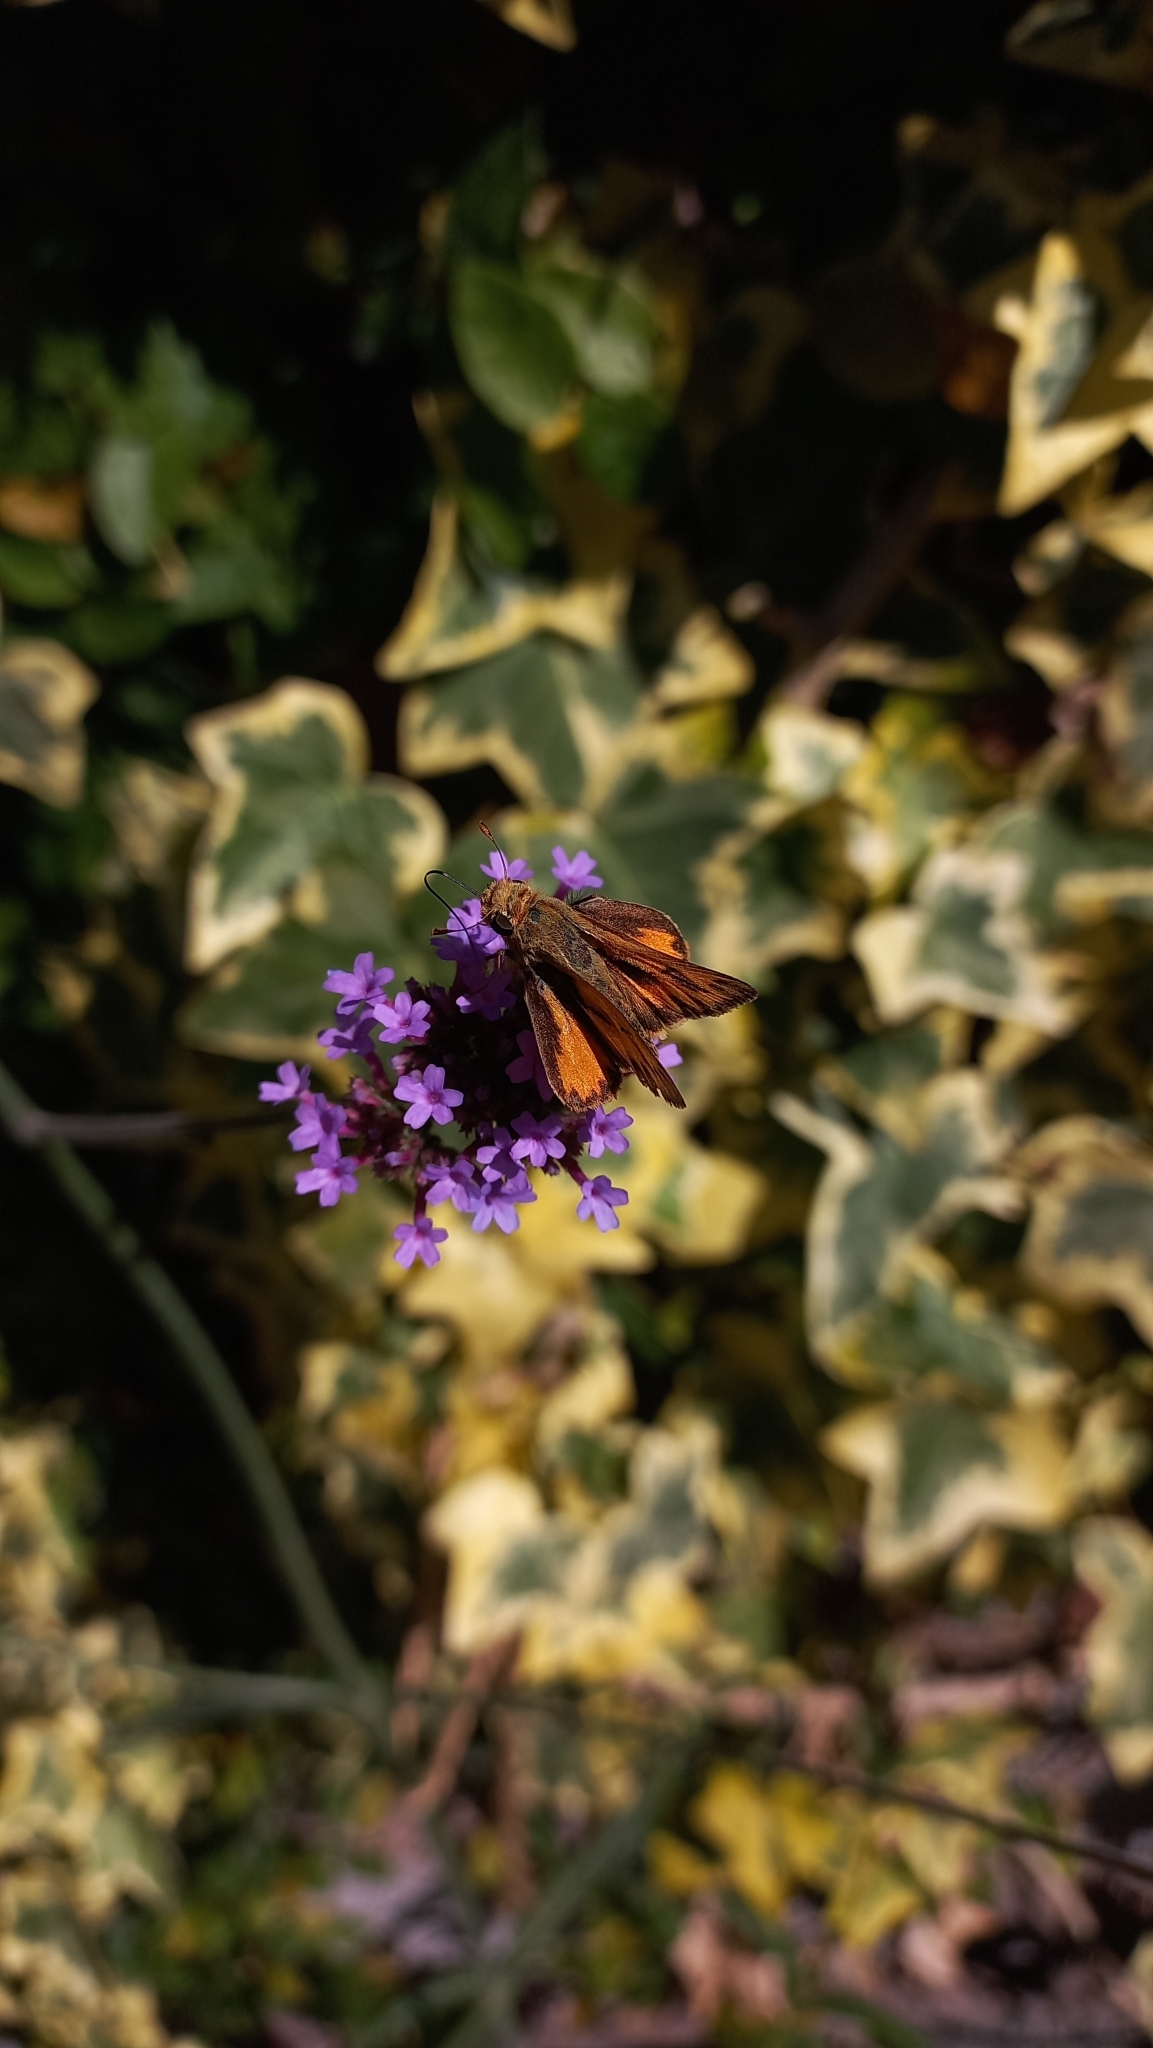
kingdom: Animalia
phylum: Arthropoda
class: Insecta
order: Lepidoptera
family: Hesperiidae
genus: Hylephila
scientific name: Hylephila phyleus
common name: Fiery skipper
